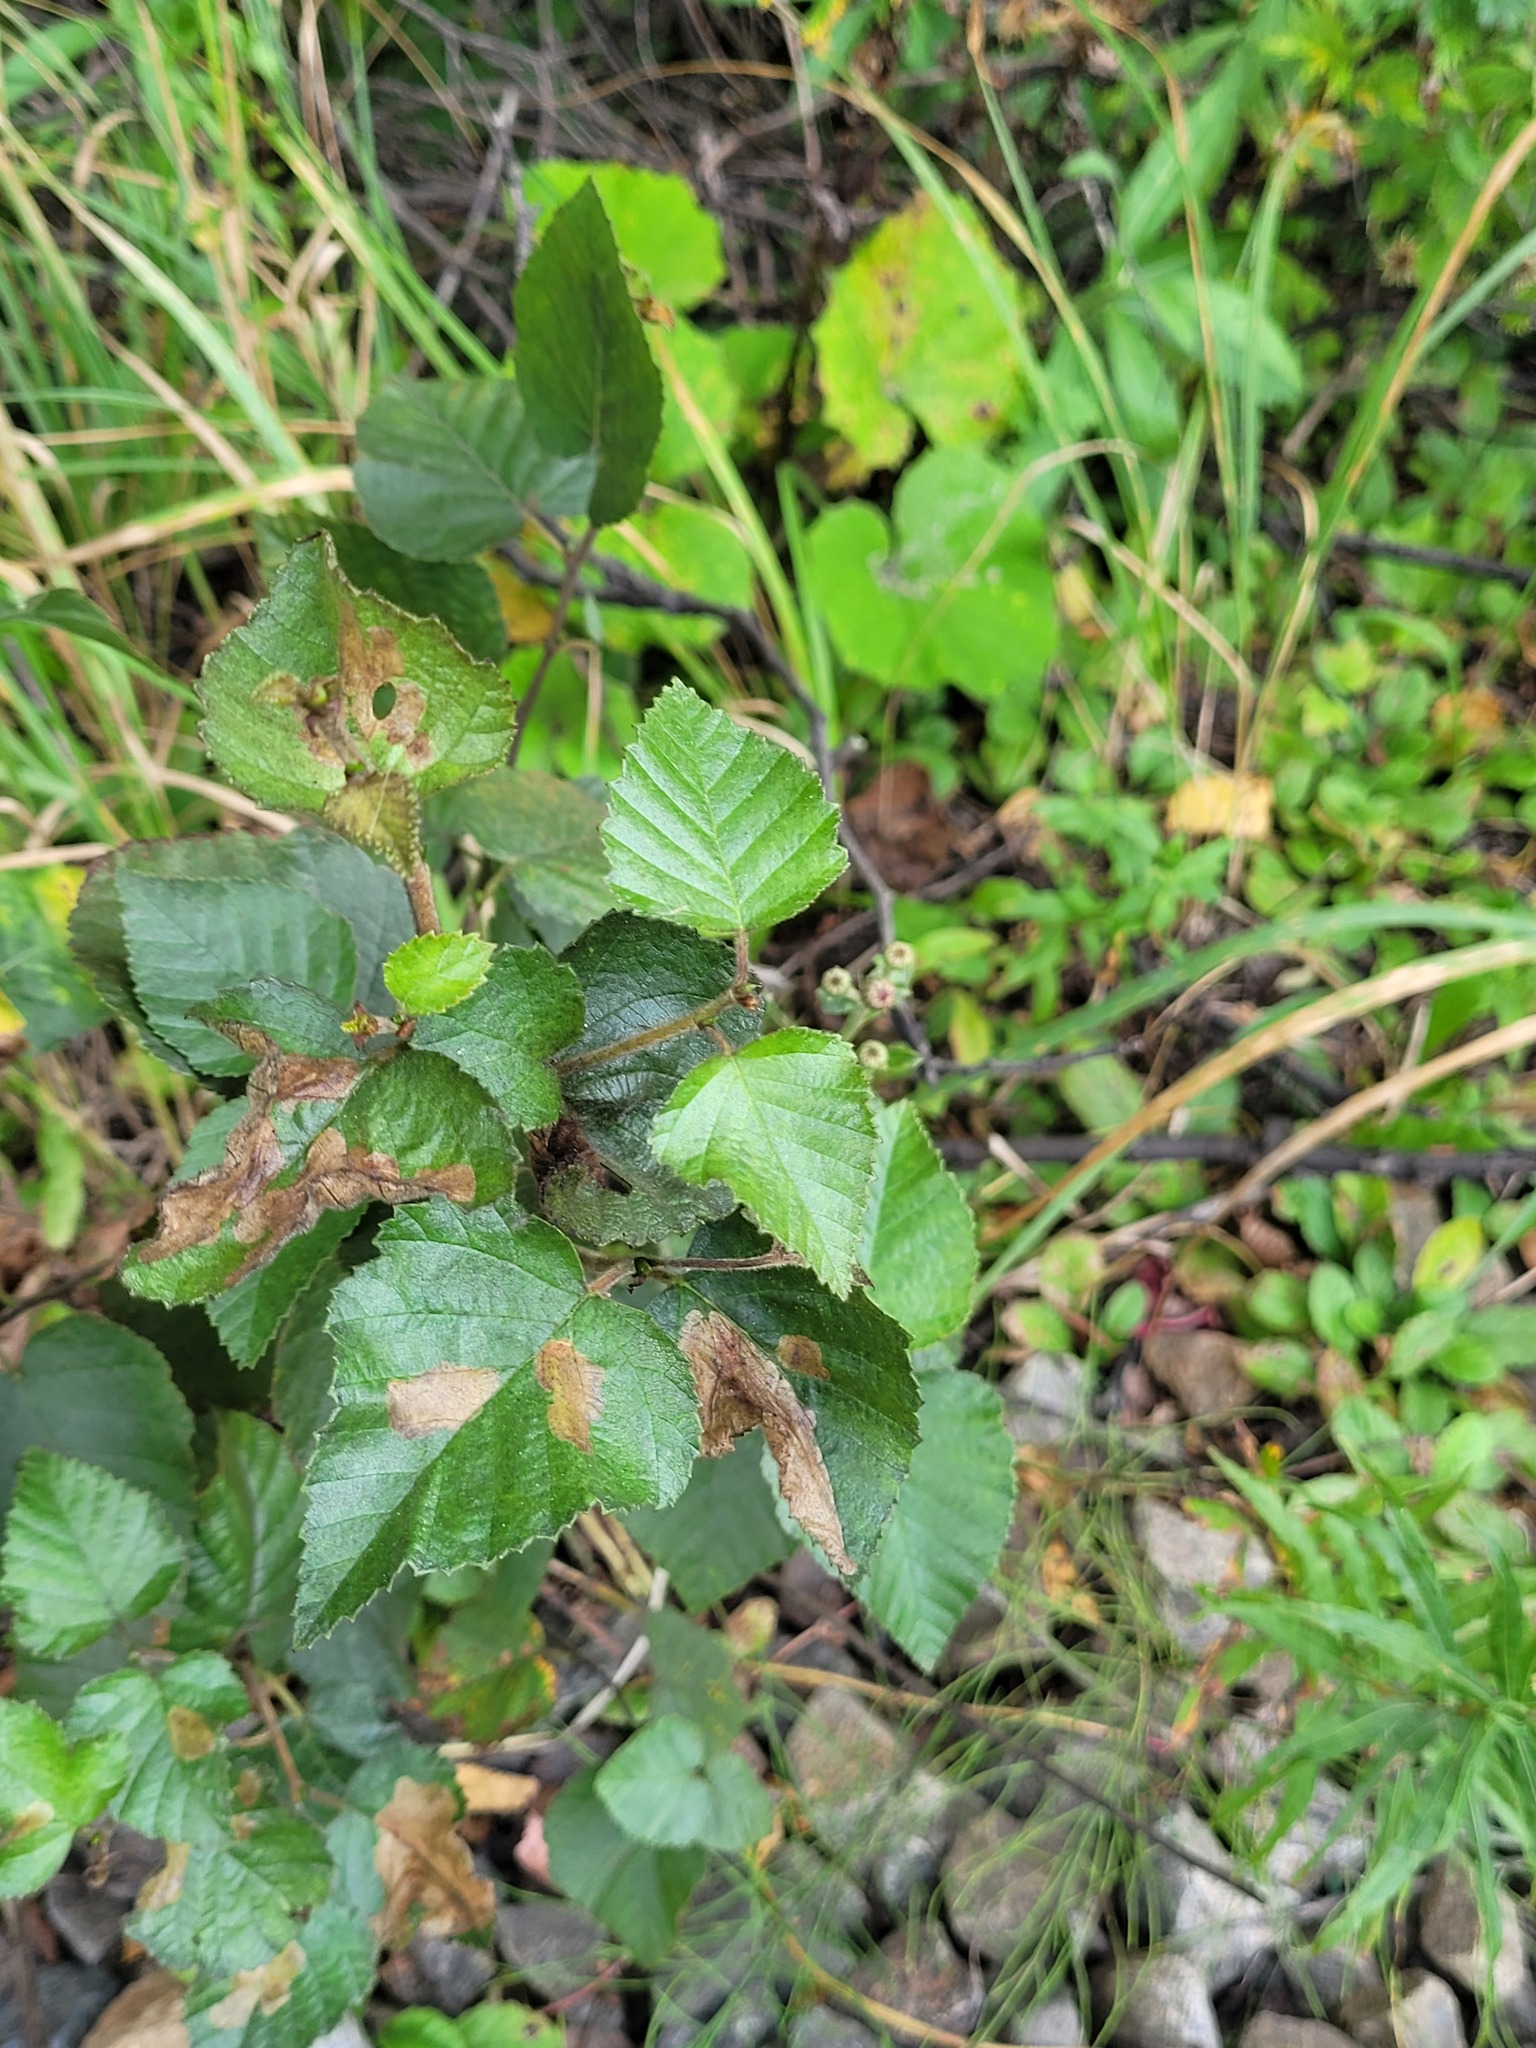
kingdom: Plantae
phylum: Tracheophyta
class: Magnoliopsida
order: Fagales
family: Betulaceae
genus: Betula
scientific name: Betula pubescens
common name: Downy birch
